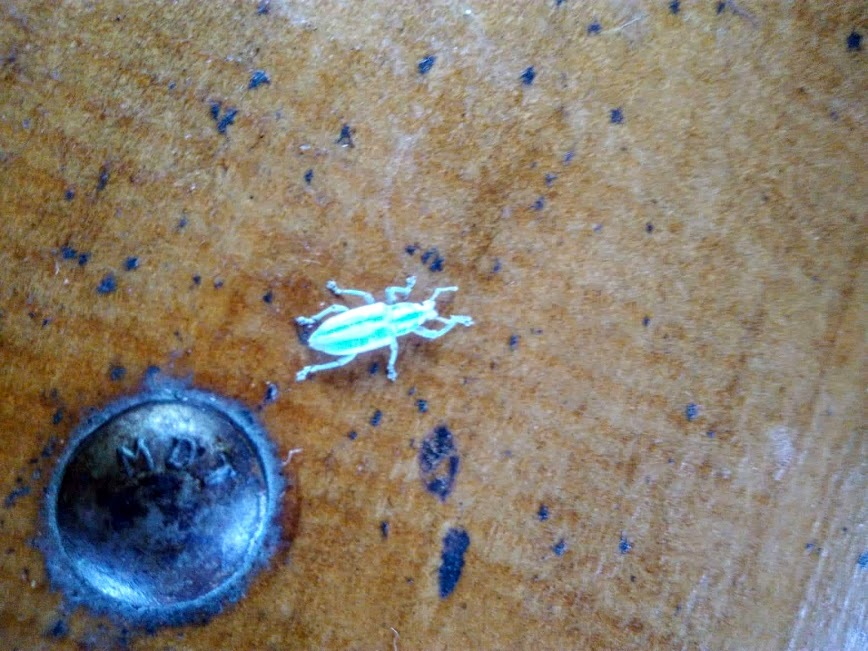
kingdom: Animalia
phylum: Arthropoda
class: Insecta
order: Coleoptera
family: Curculionidae
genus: Compsus
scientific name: Compsus viridivittatus
